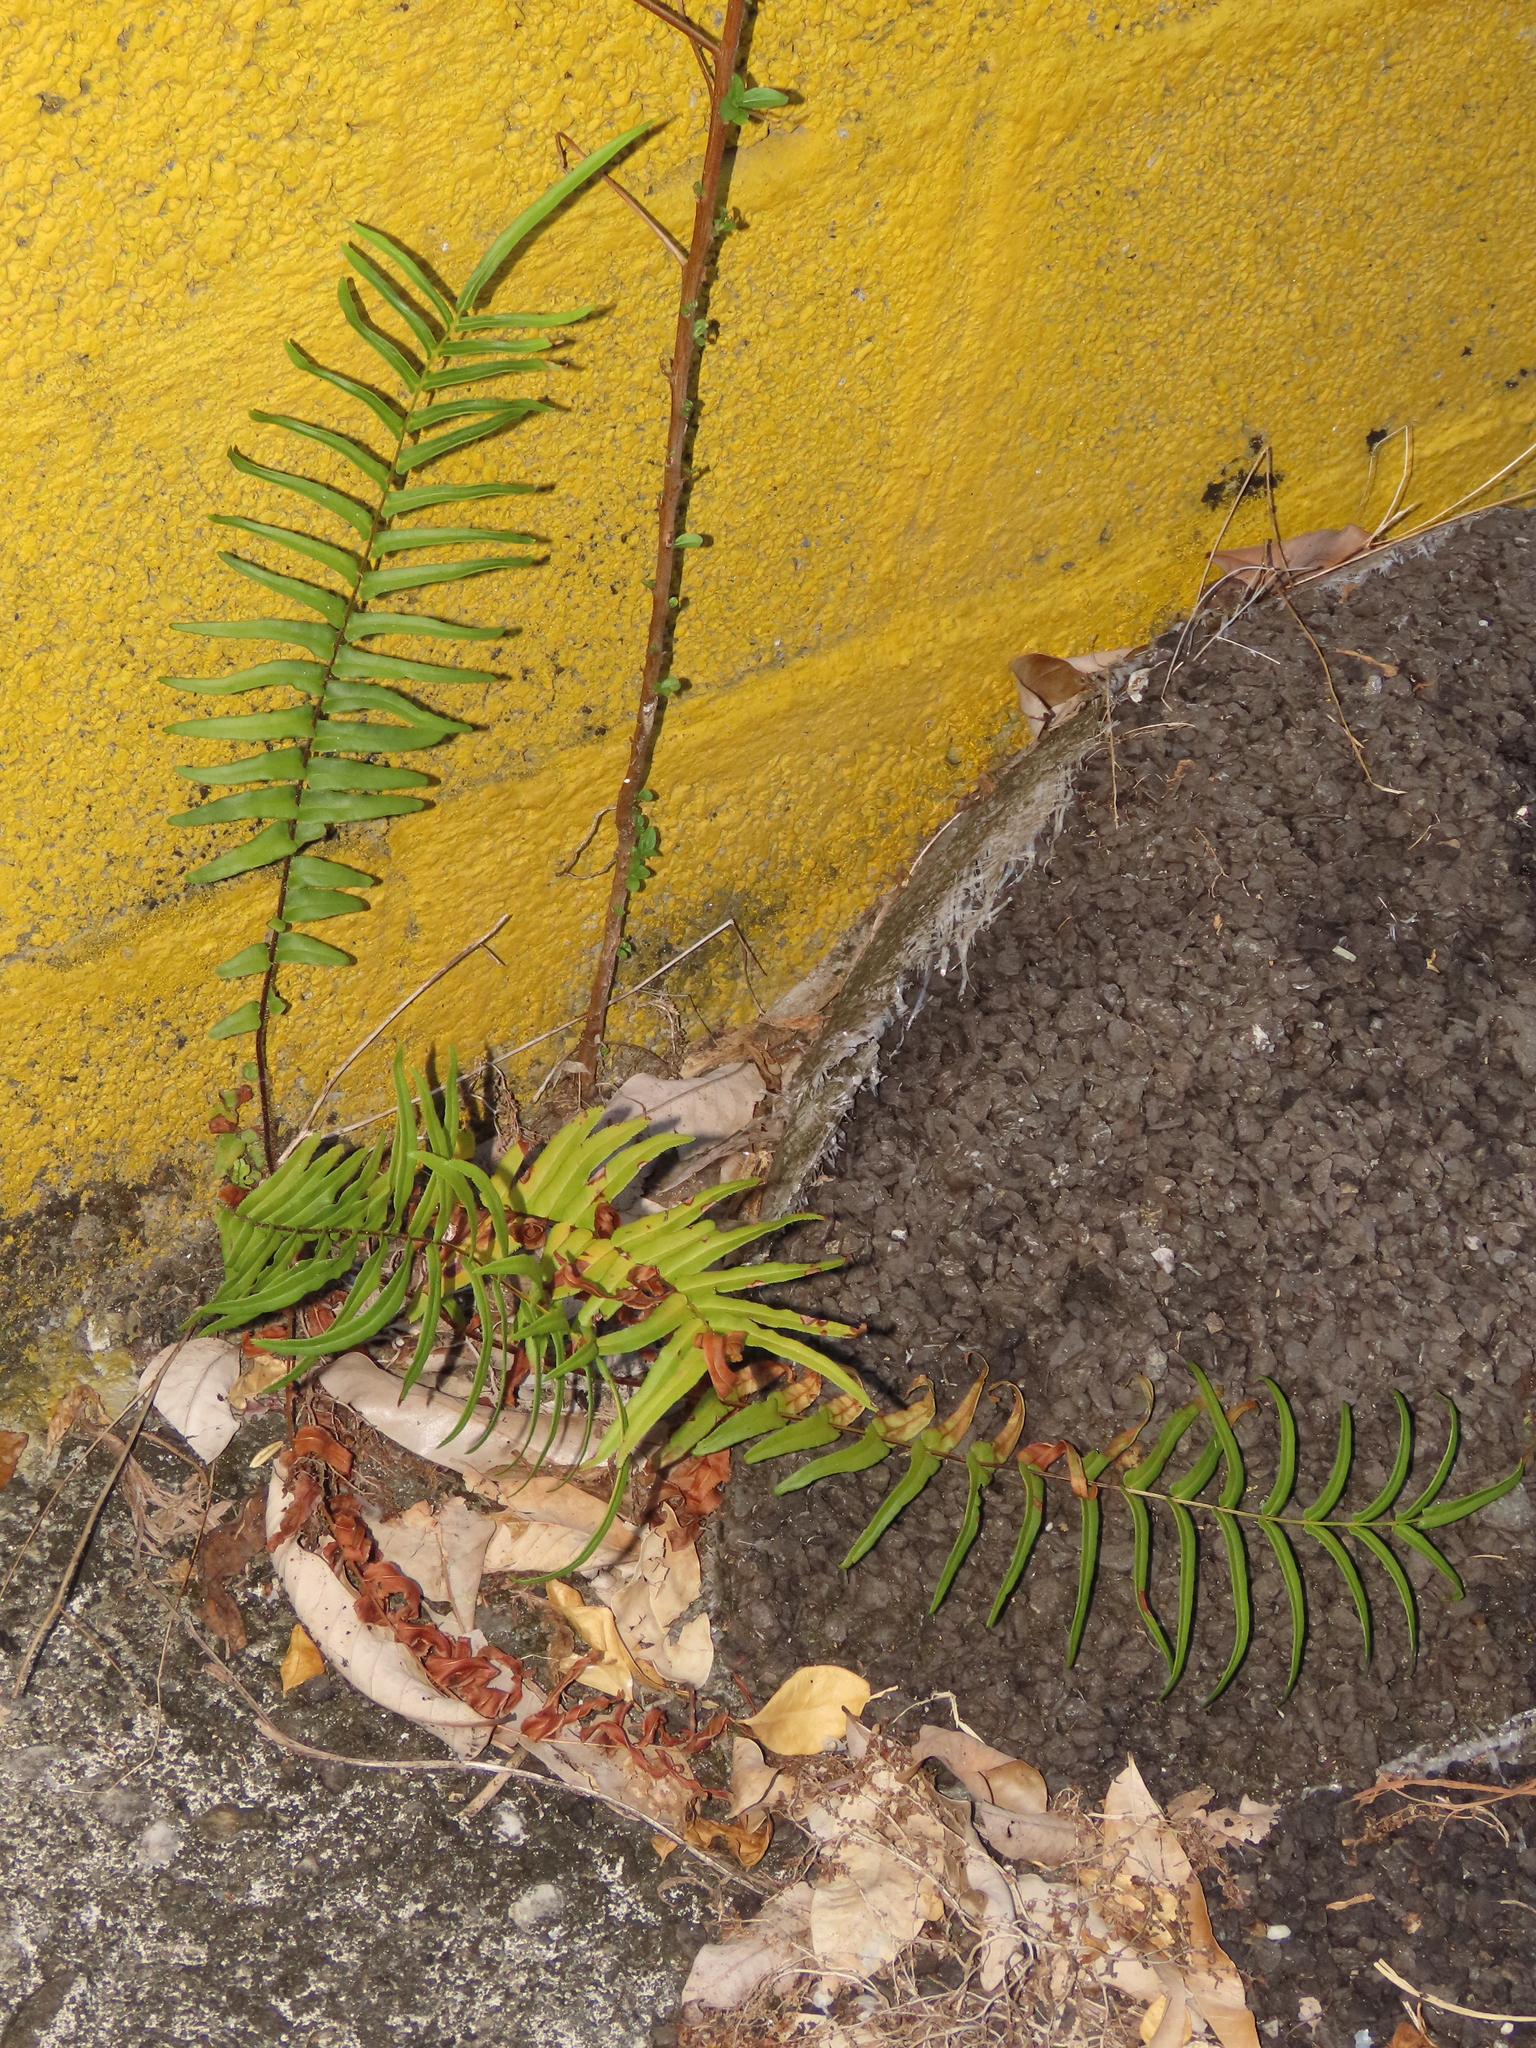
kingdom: Plantae
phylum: Tracheophyta
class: Polypodiopsida
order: Polypodiales
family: Pteridaceae
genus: Pteris
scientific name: Pteris vittata
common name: Ladder brake
